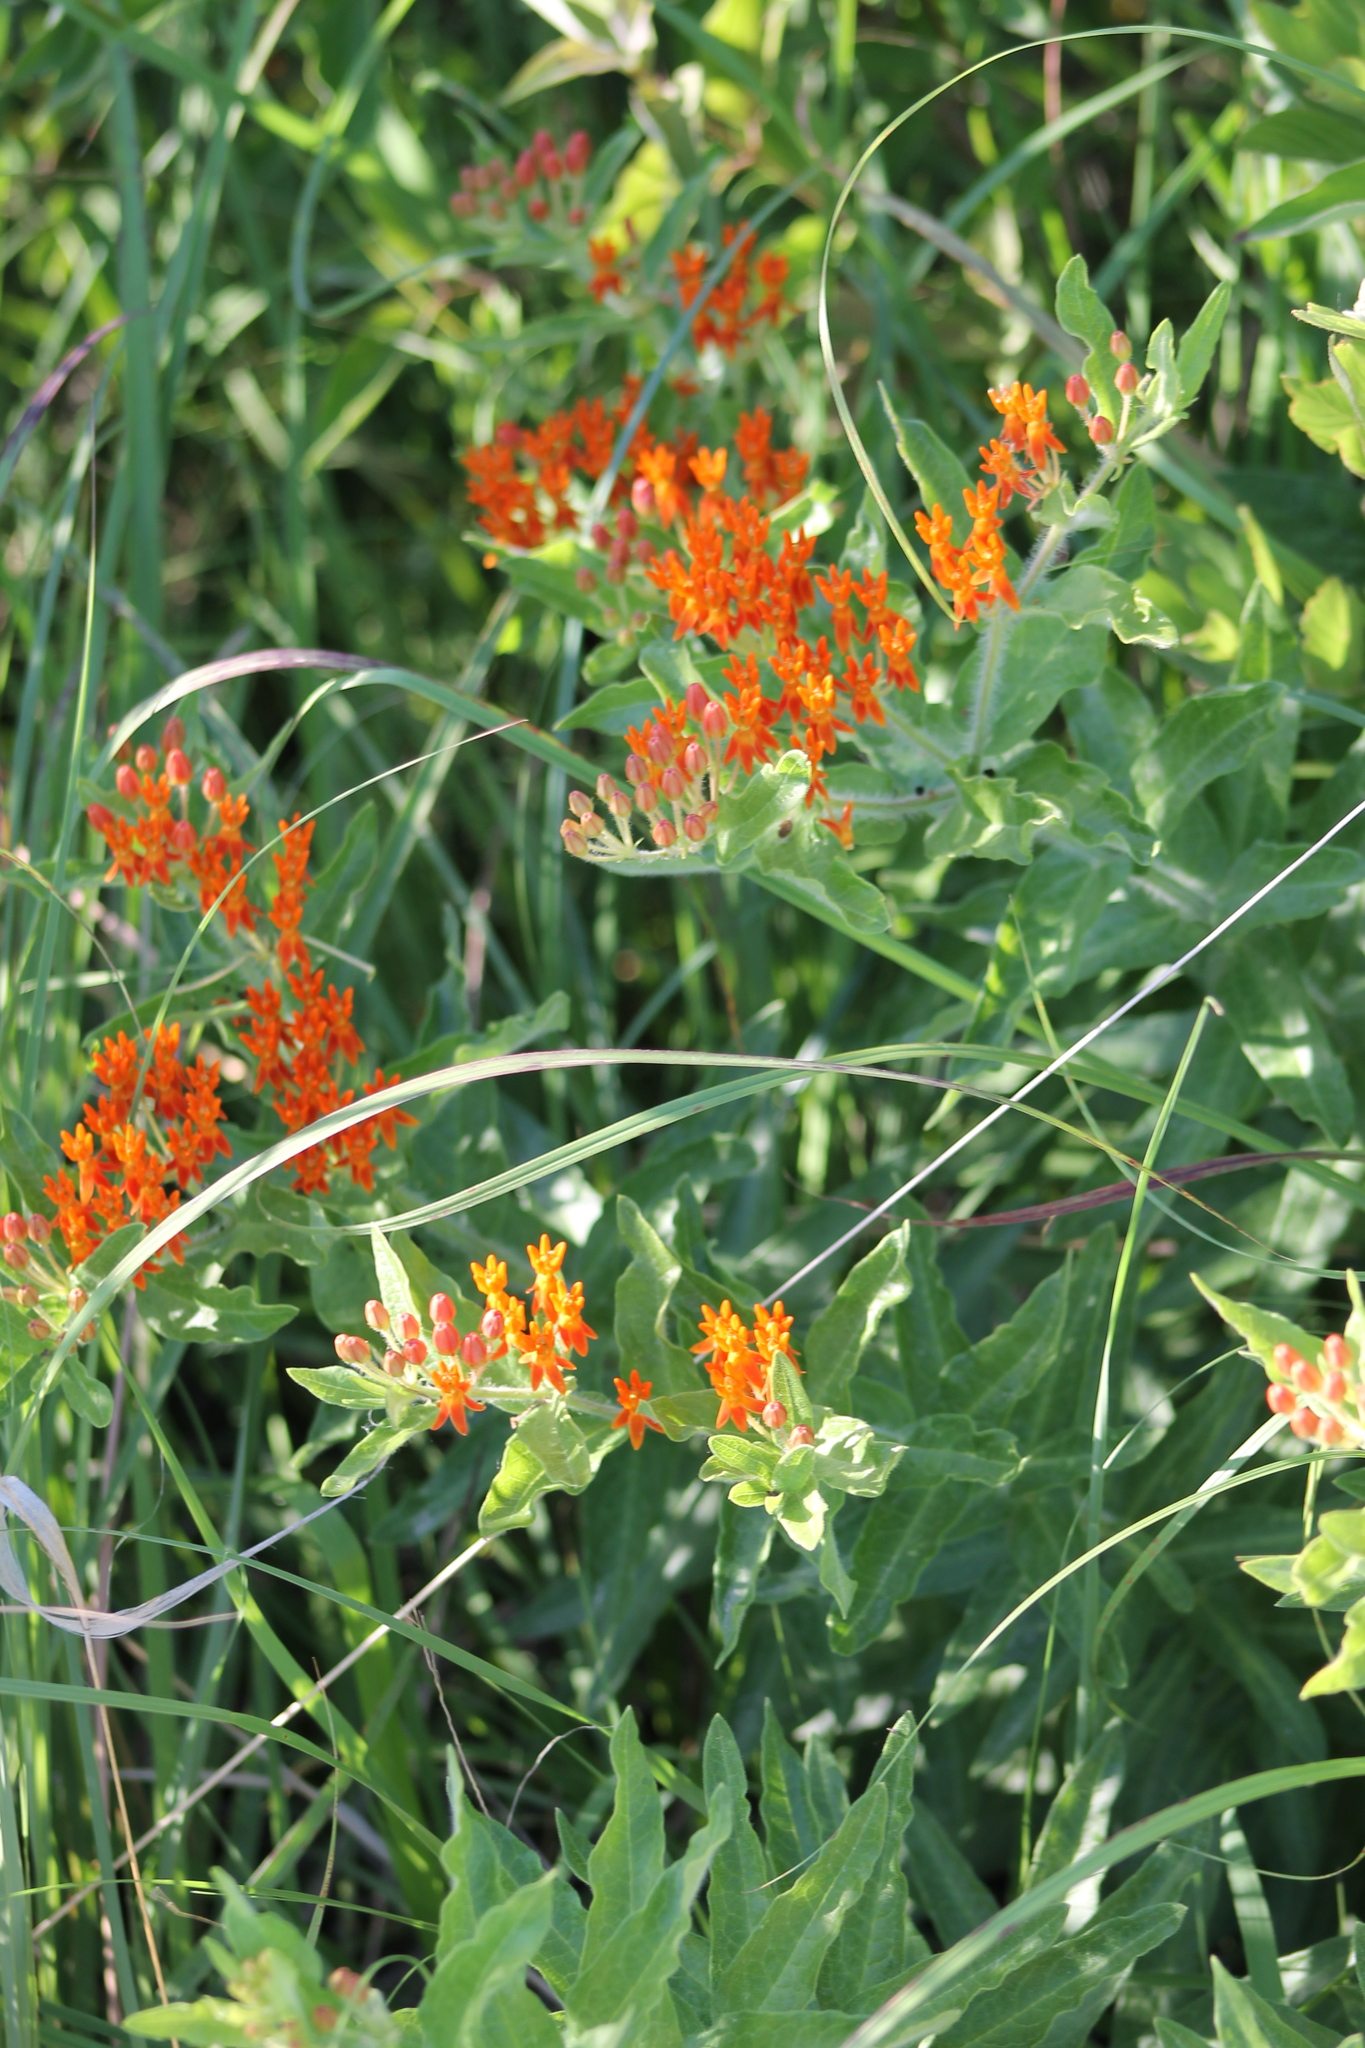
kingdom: Plantae
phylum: Tracheophyta
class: Magnoliopsida
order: Gentianales
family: Apocynaceae
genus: Asclepias
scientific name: Asclepias tuberosa
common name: Butterfly milkweed
